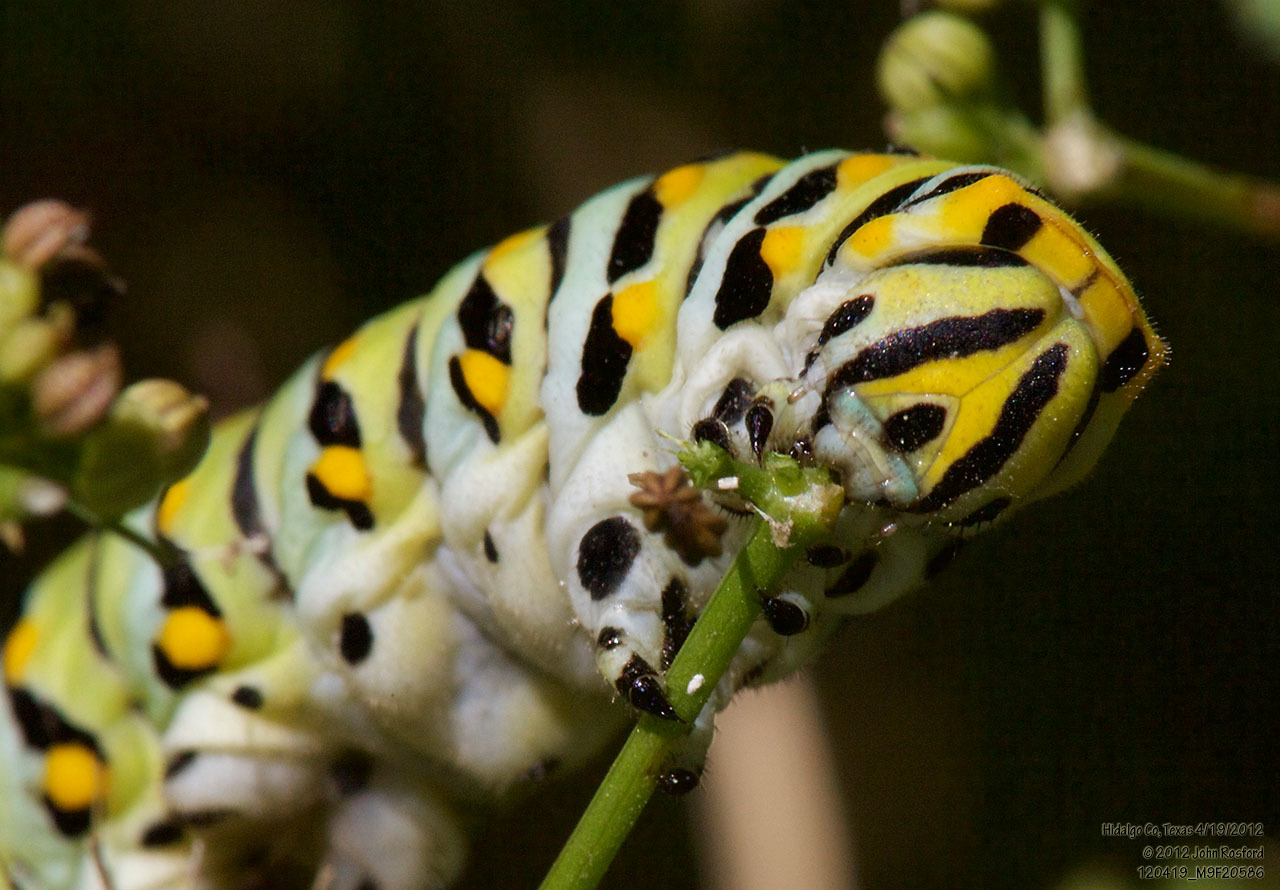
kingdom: Animalia
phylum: Arthropoda
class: Insecta
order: Lepidoptera
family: Papilionidae
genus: Papilio
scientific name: Papilio polyxenes
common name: Black swallowtail
